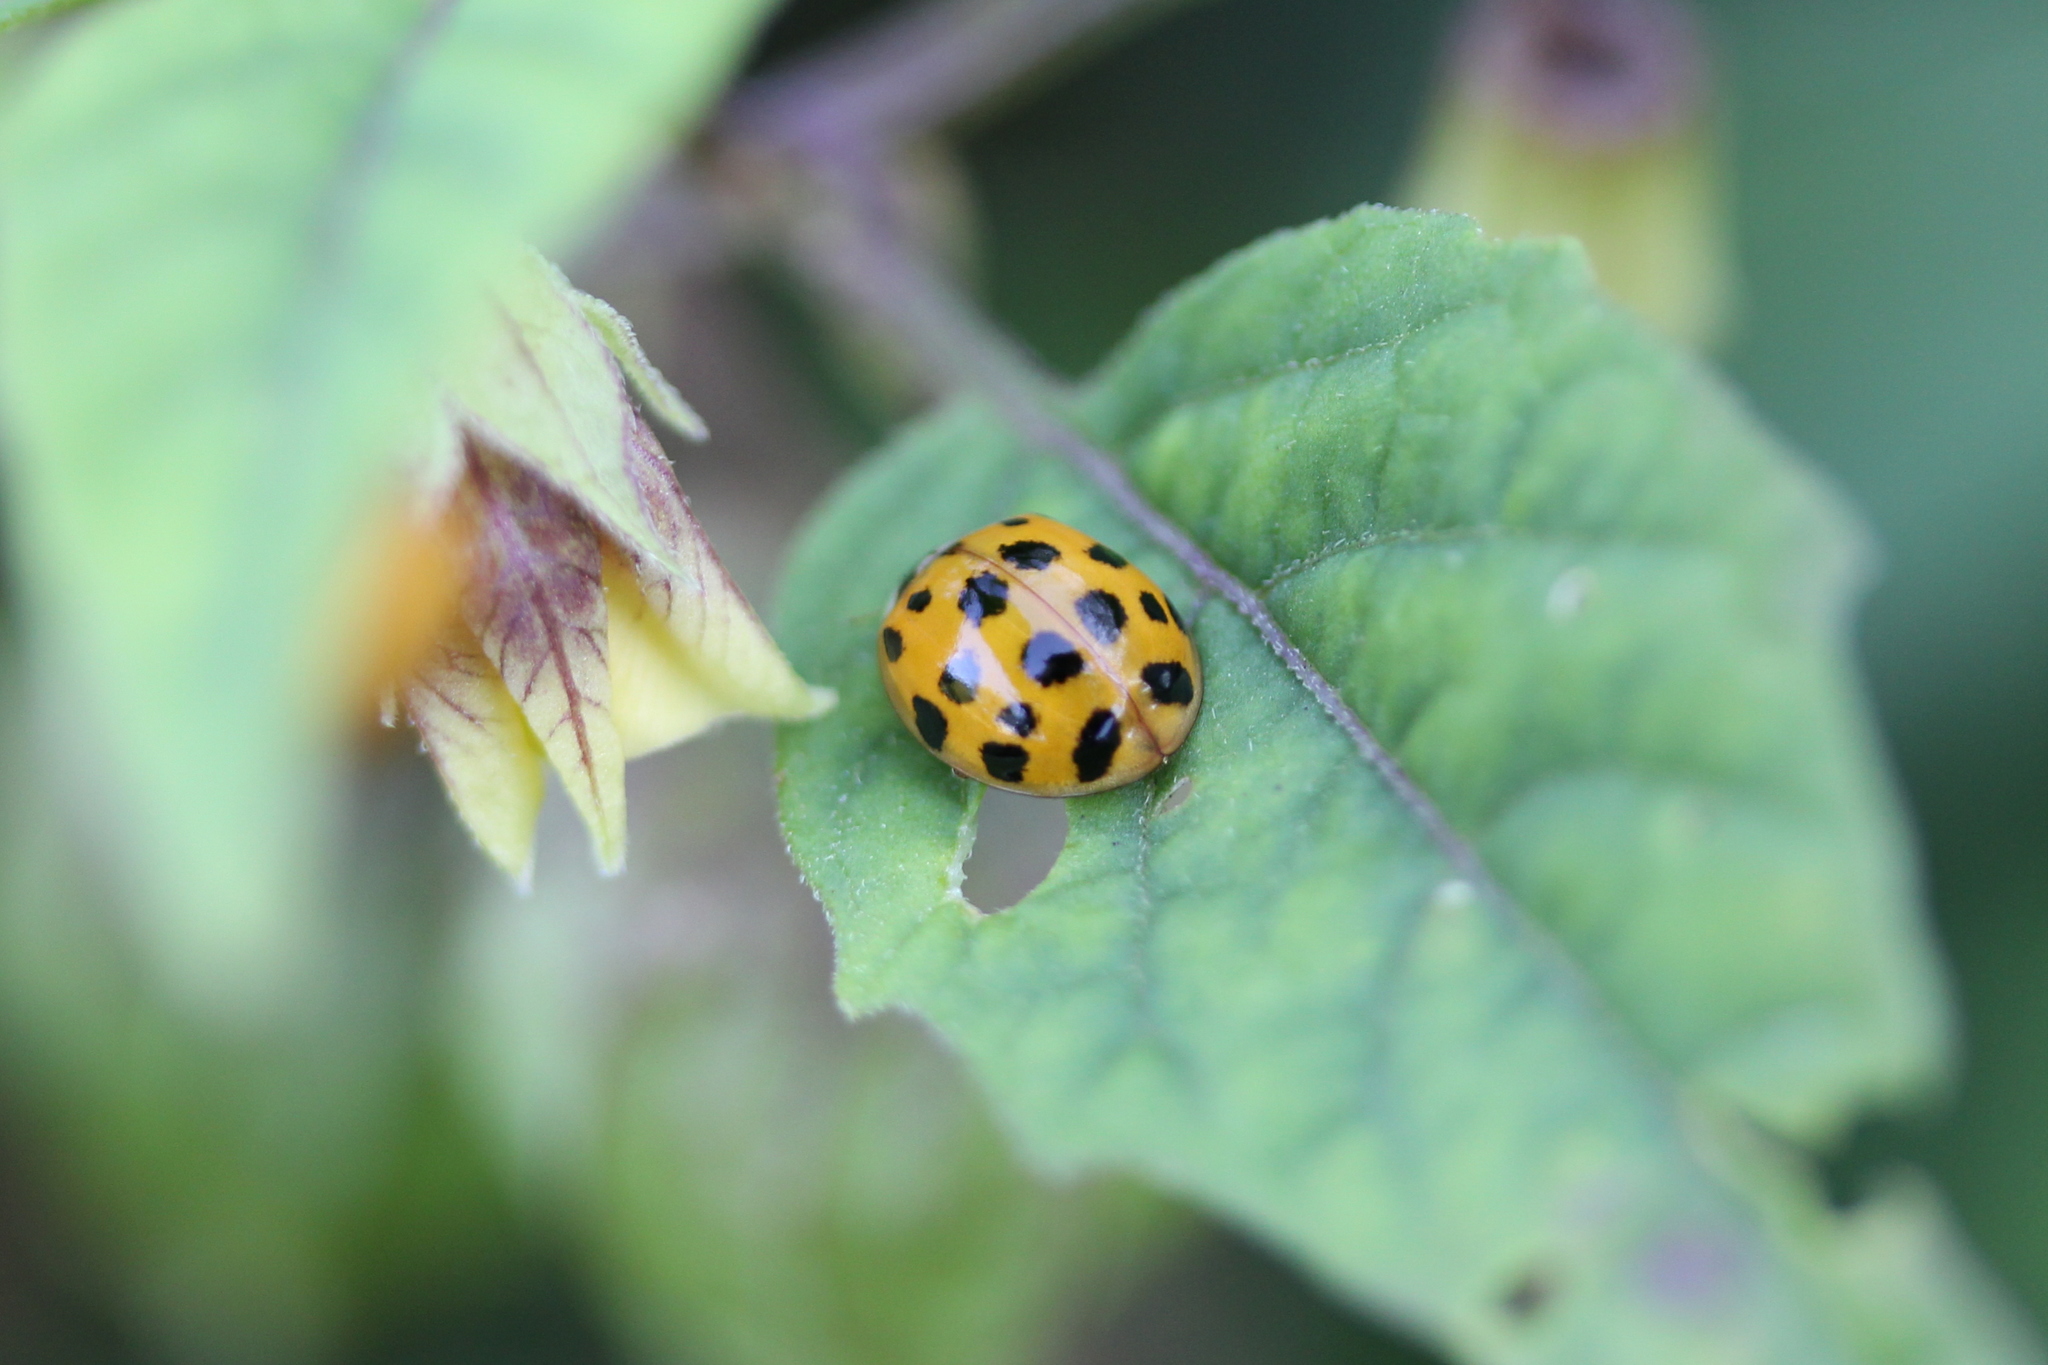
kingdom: Animalia
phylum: Arthropoda
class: Insecta
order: Coleoptera
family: Coccinellidae
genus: Harmonia
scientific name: Harmonia axyridis
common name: Harlequin ladybird
